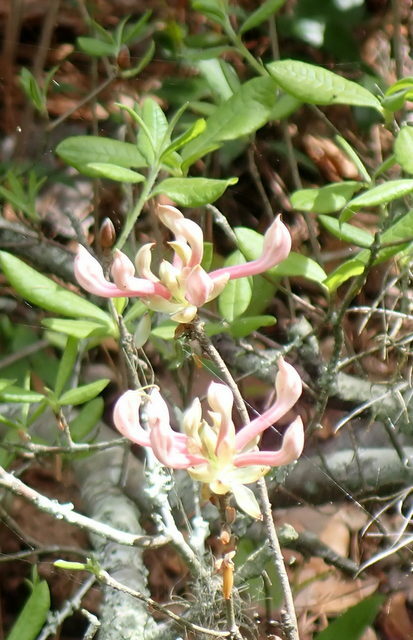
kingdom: Plantae
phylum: Tracheophyta
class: Magnoliopsida
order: Ericales
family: Ericaceae
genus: Rhododendron
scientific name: Rhododendron canescens
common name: Mountain azalea
